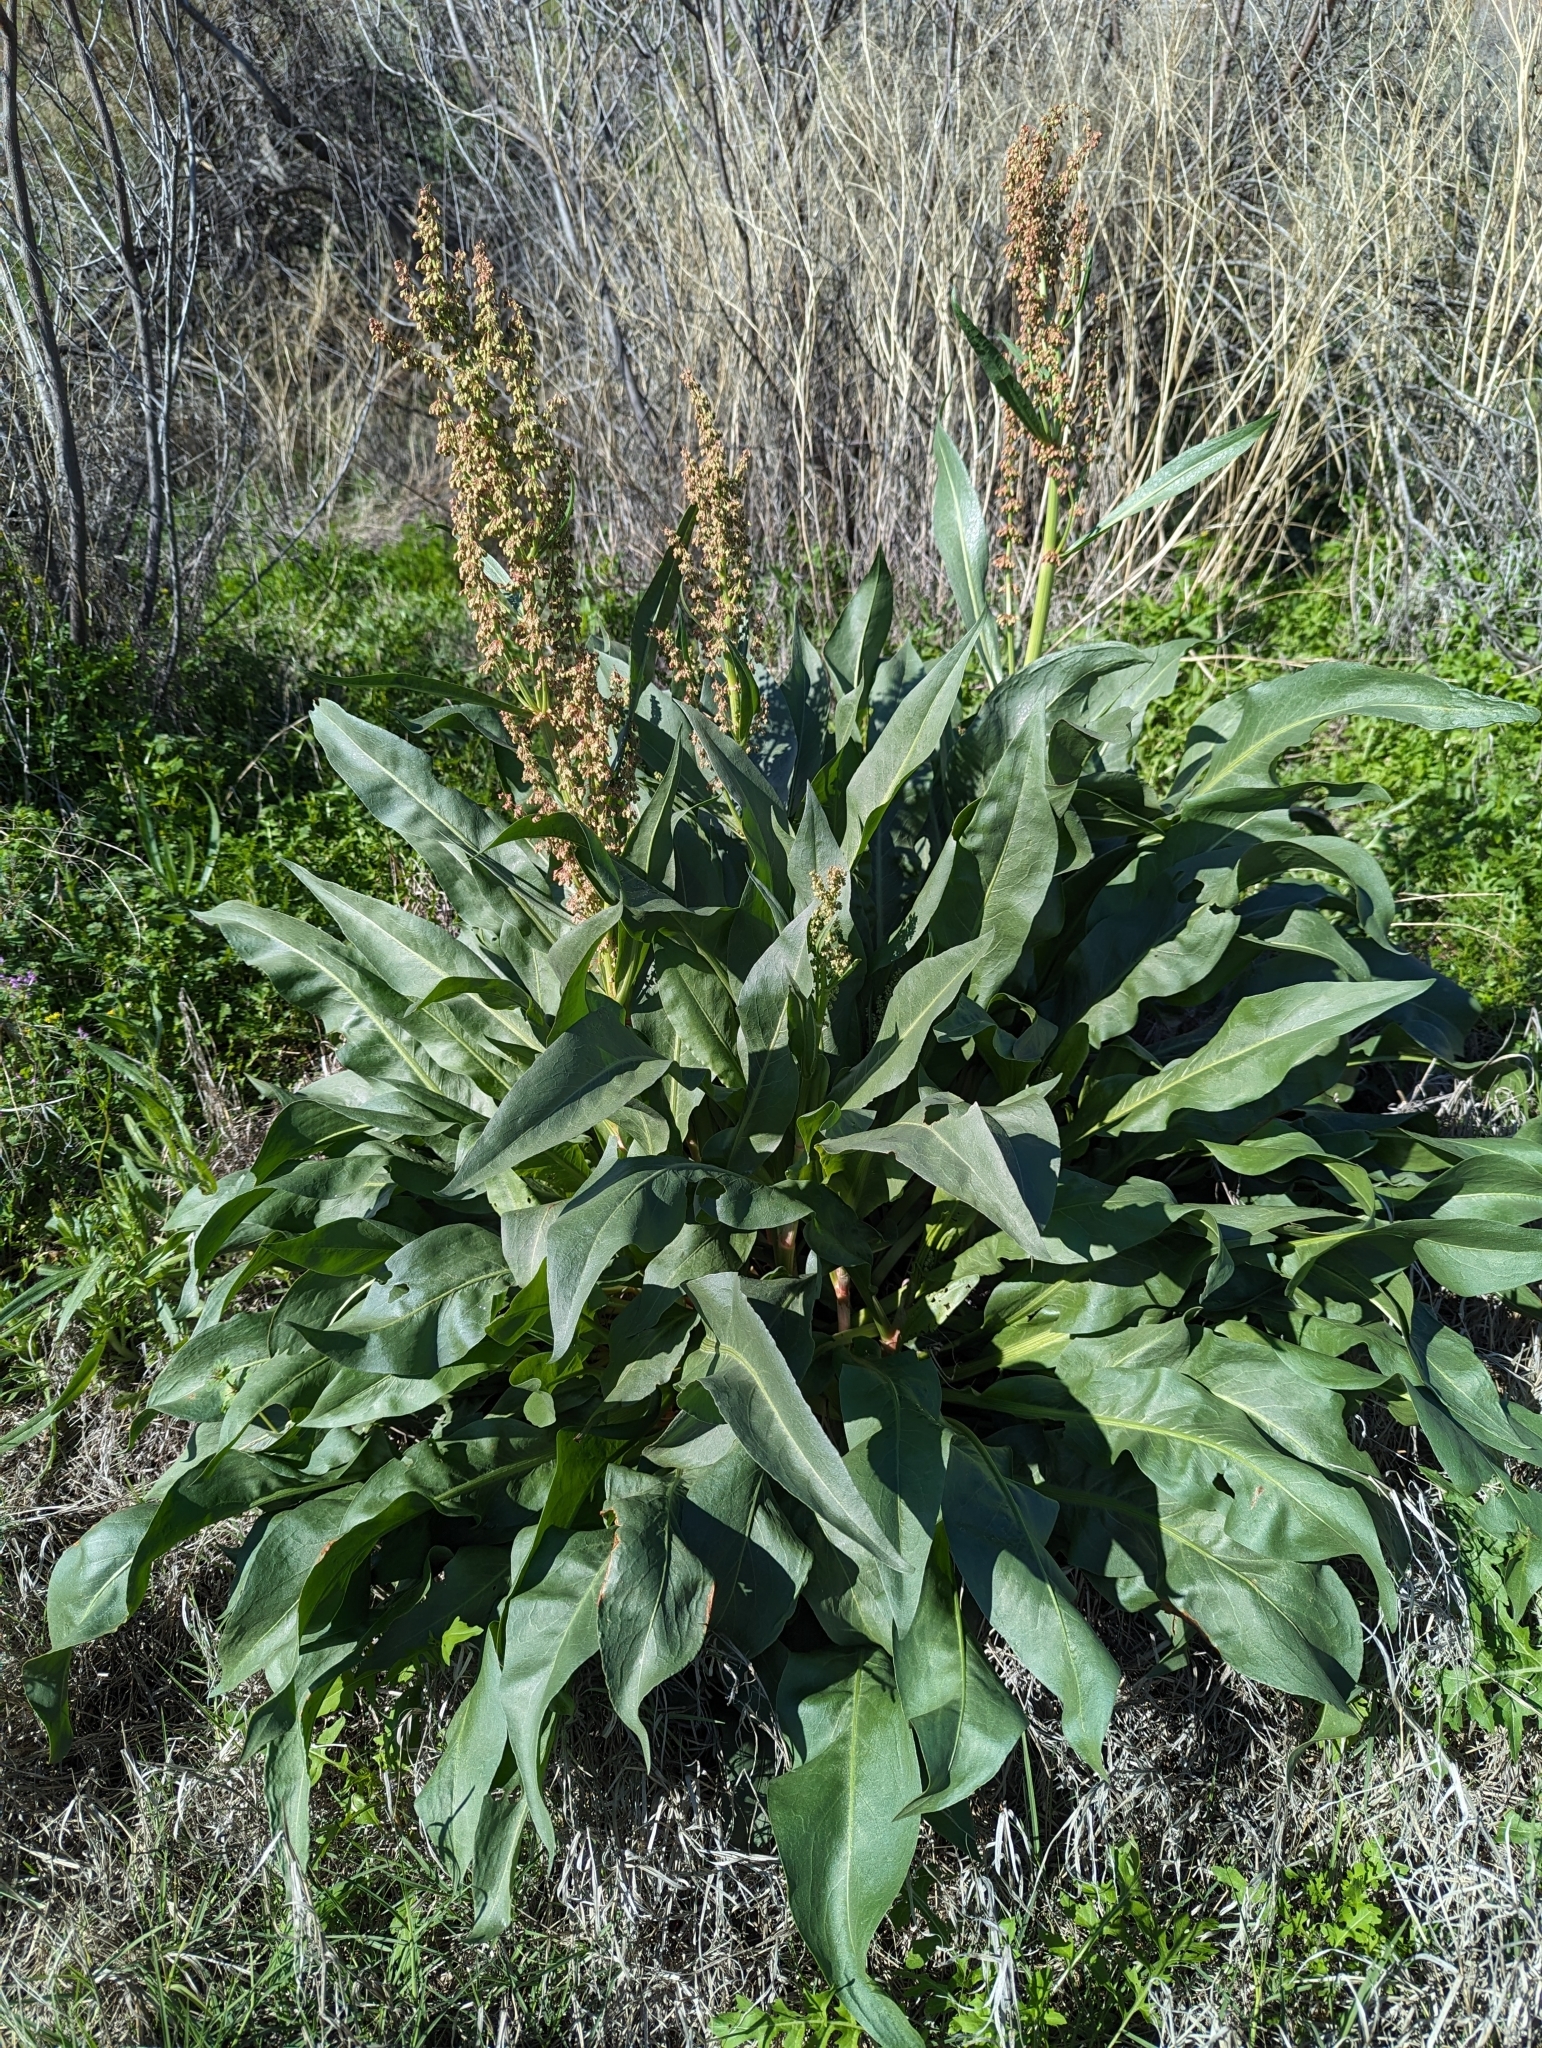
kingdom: Plantae
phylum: Tracheophyta
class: Magnoliopsida
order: Caryophyllales
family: Polygonaceae
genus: Rumex
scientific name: Rumex hymenosepalus
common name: Ganagra
